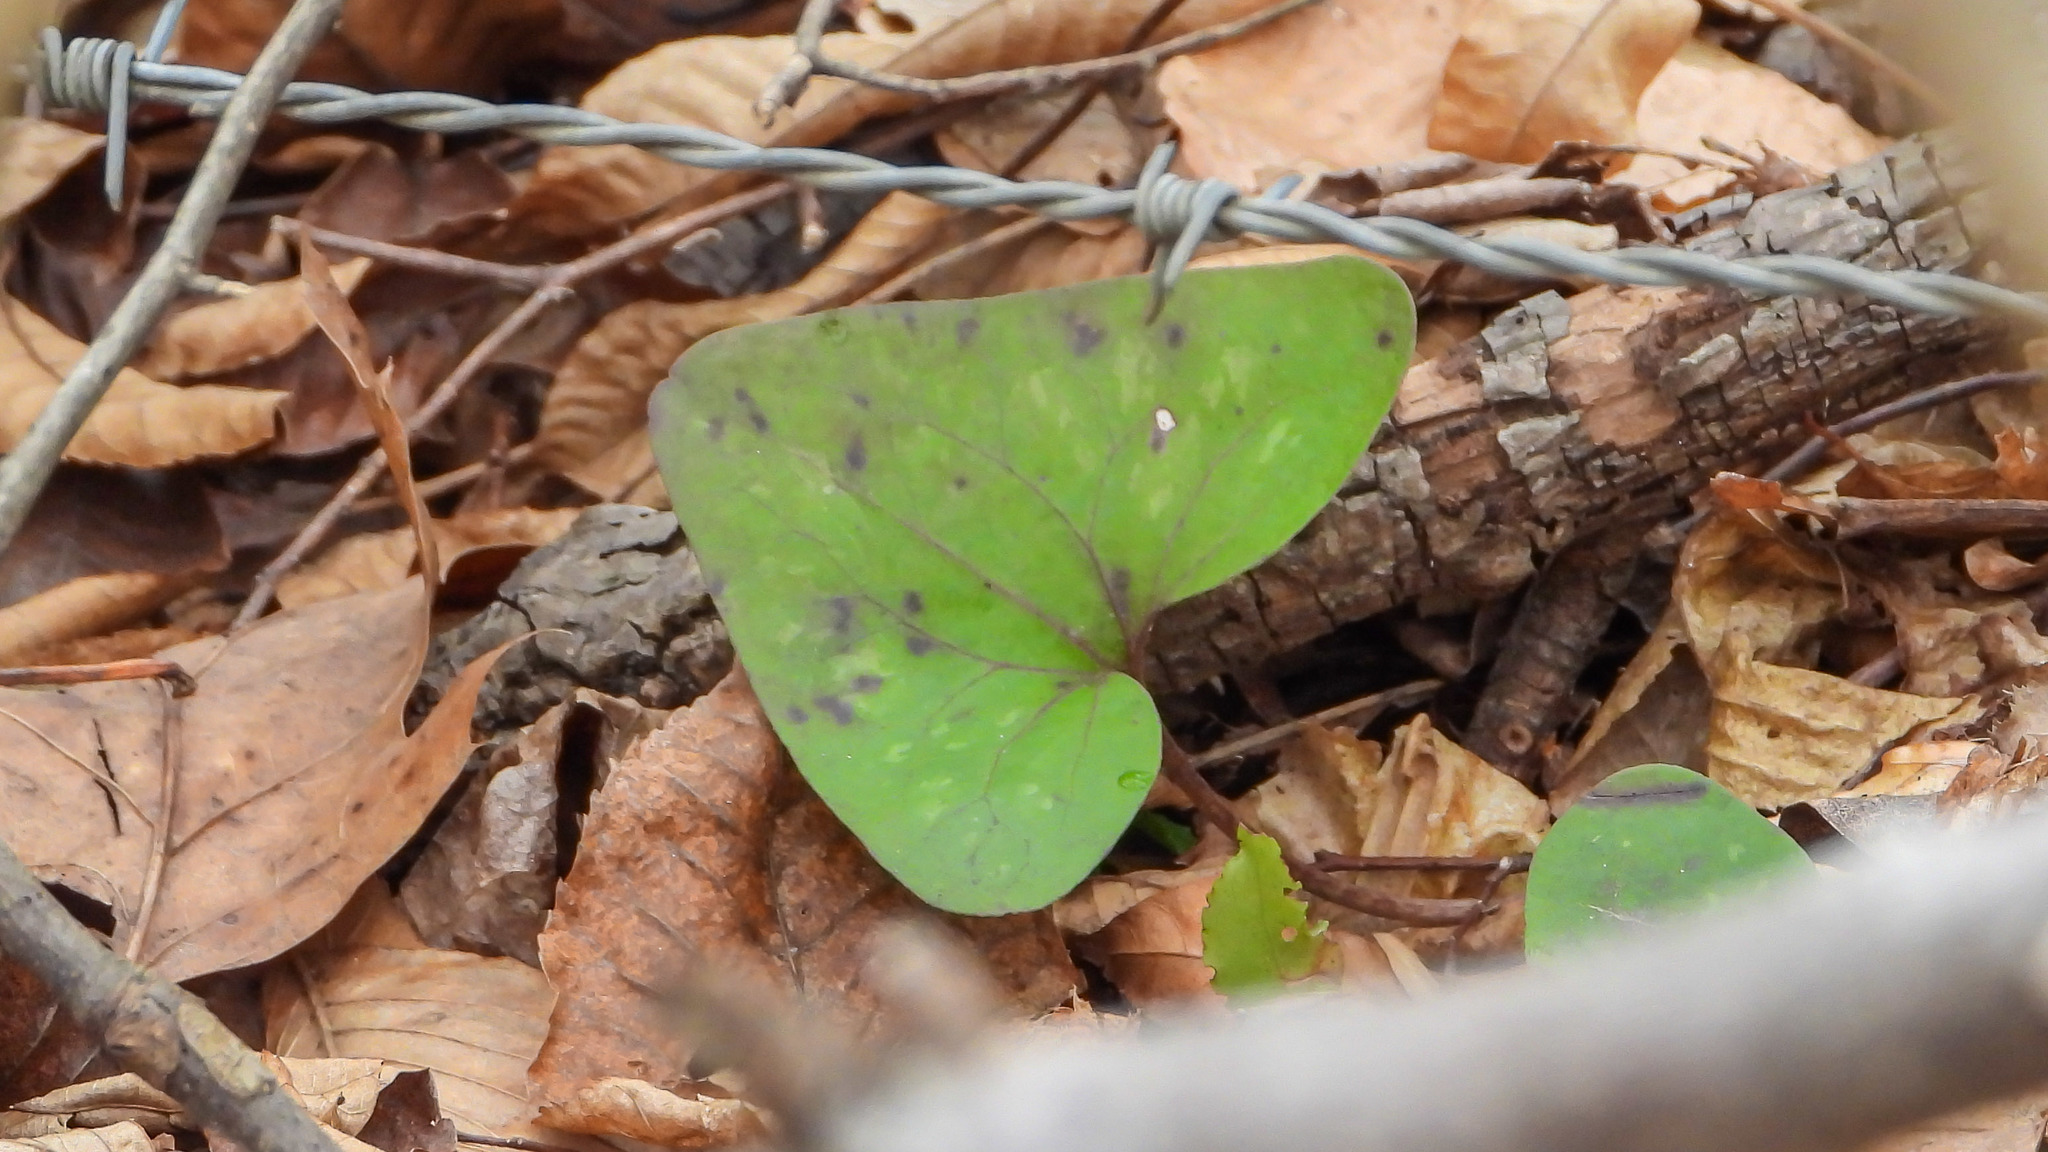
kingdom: Plantae
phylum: Tracheophyta
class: Magnoliopsida
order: Piperales
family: Aristolochiaceae
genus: Hexastylis
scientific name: Hexastylis arifolia
